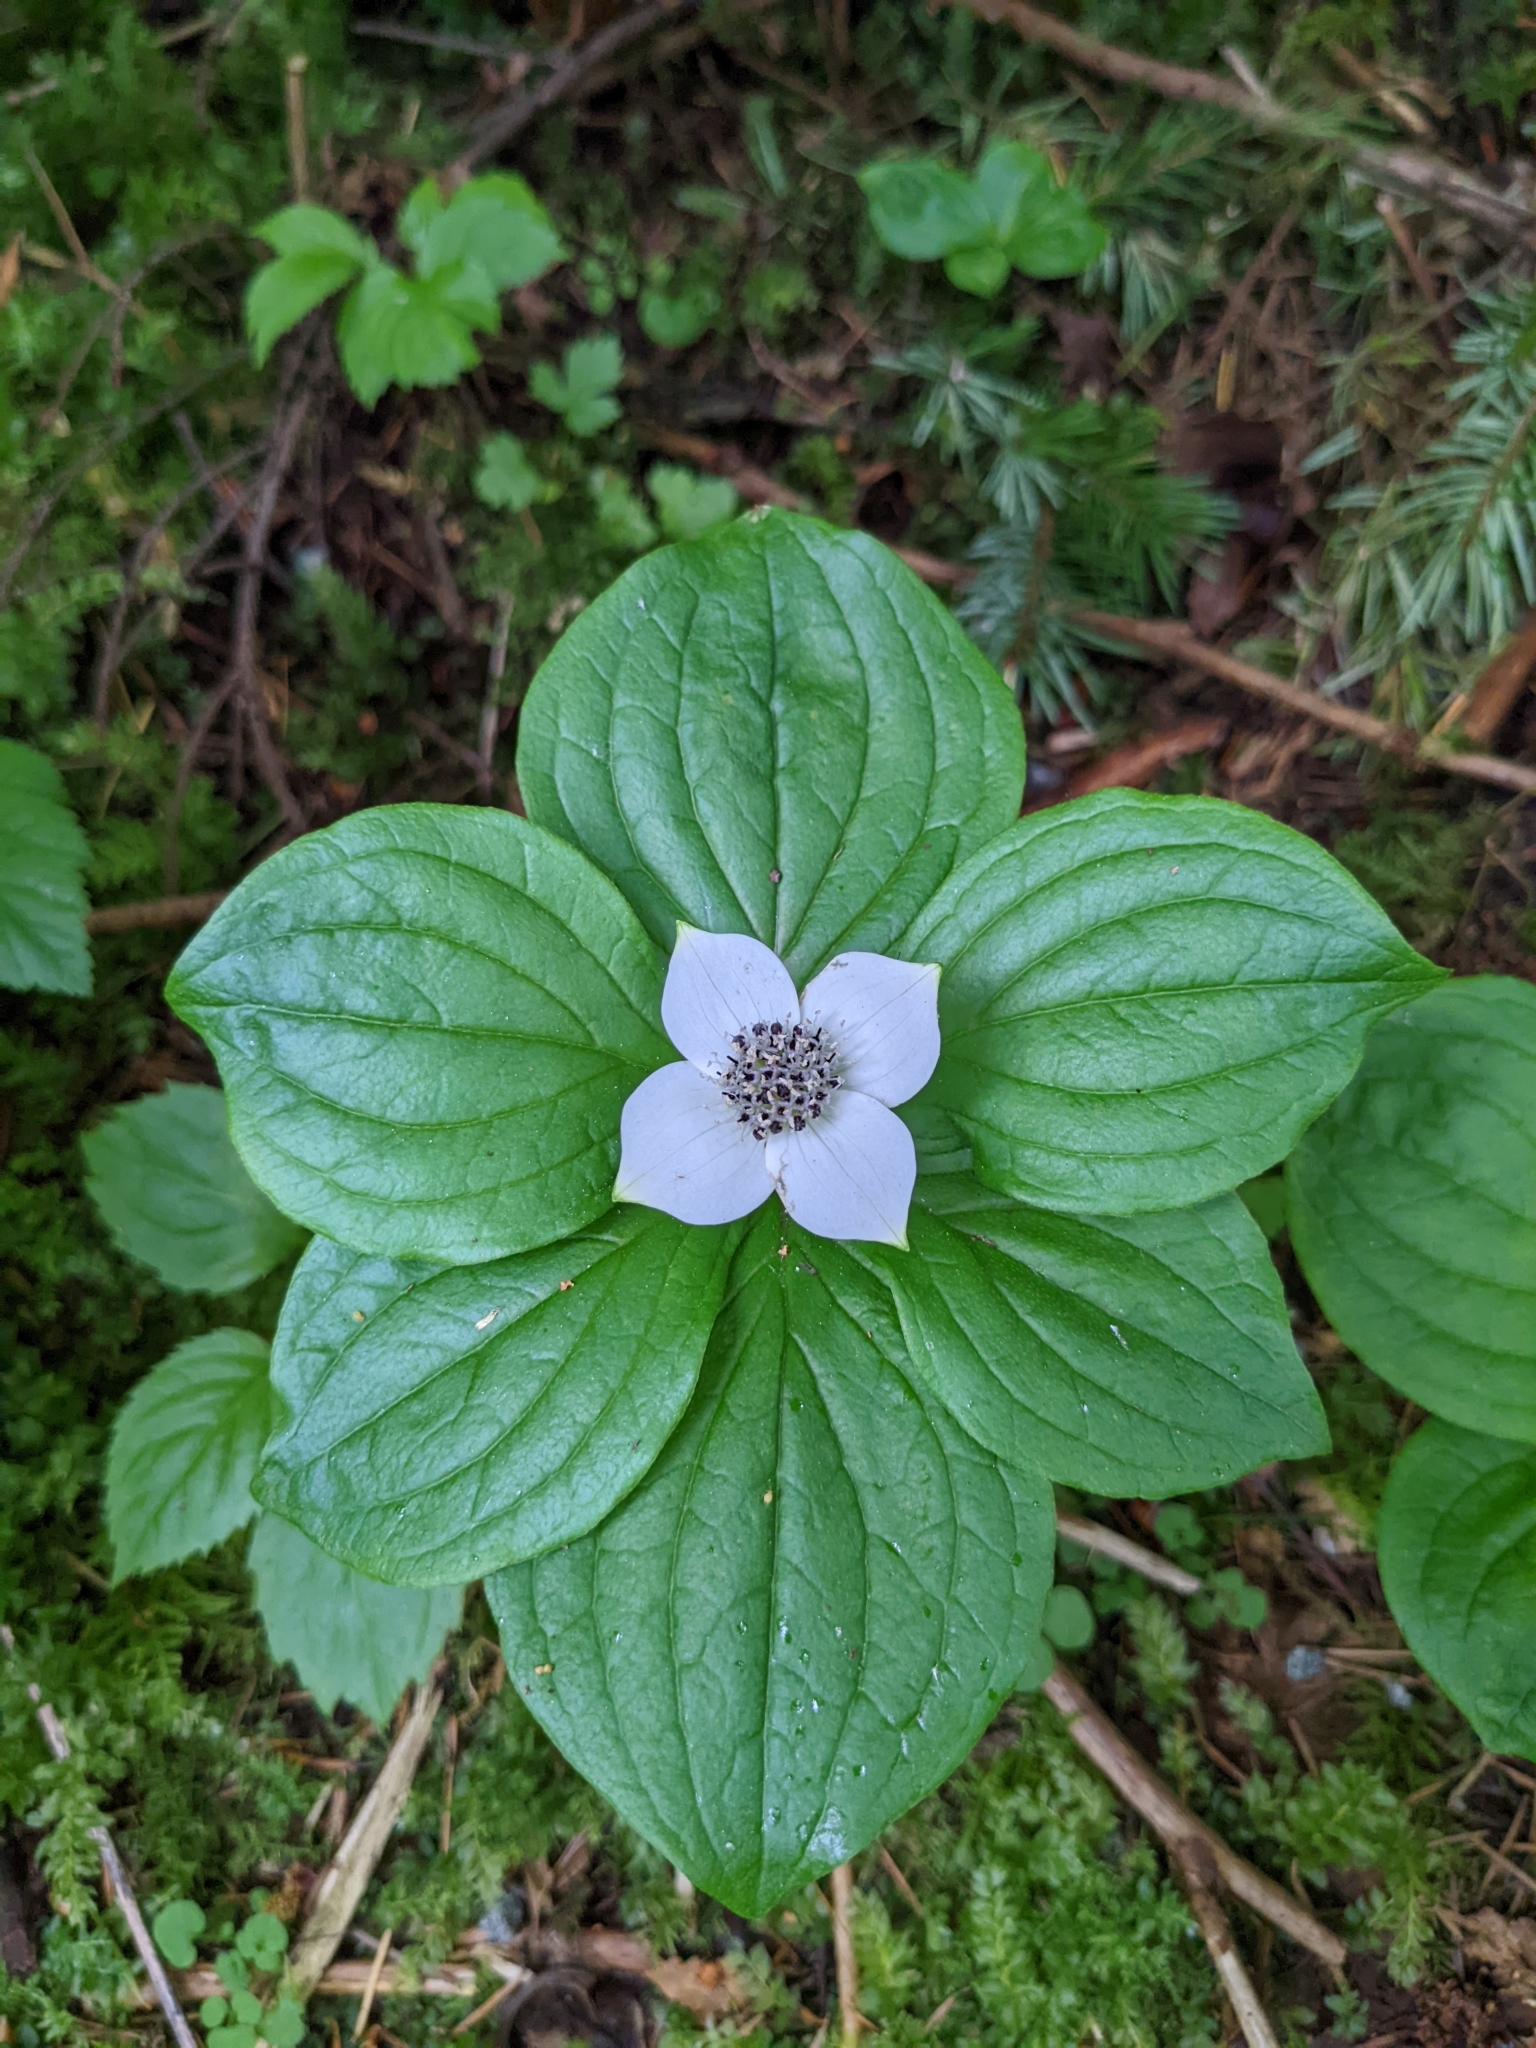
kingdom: Plantae
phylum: Tracheophyta
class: Magnoliopsida
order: Cornales
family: Cornaceae
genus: Cornus
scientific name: Cornus unalaschkensis
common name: Alaska bunchberry
